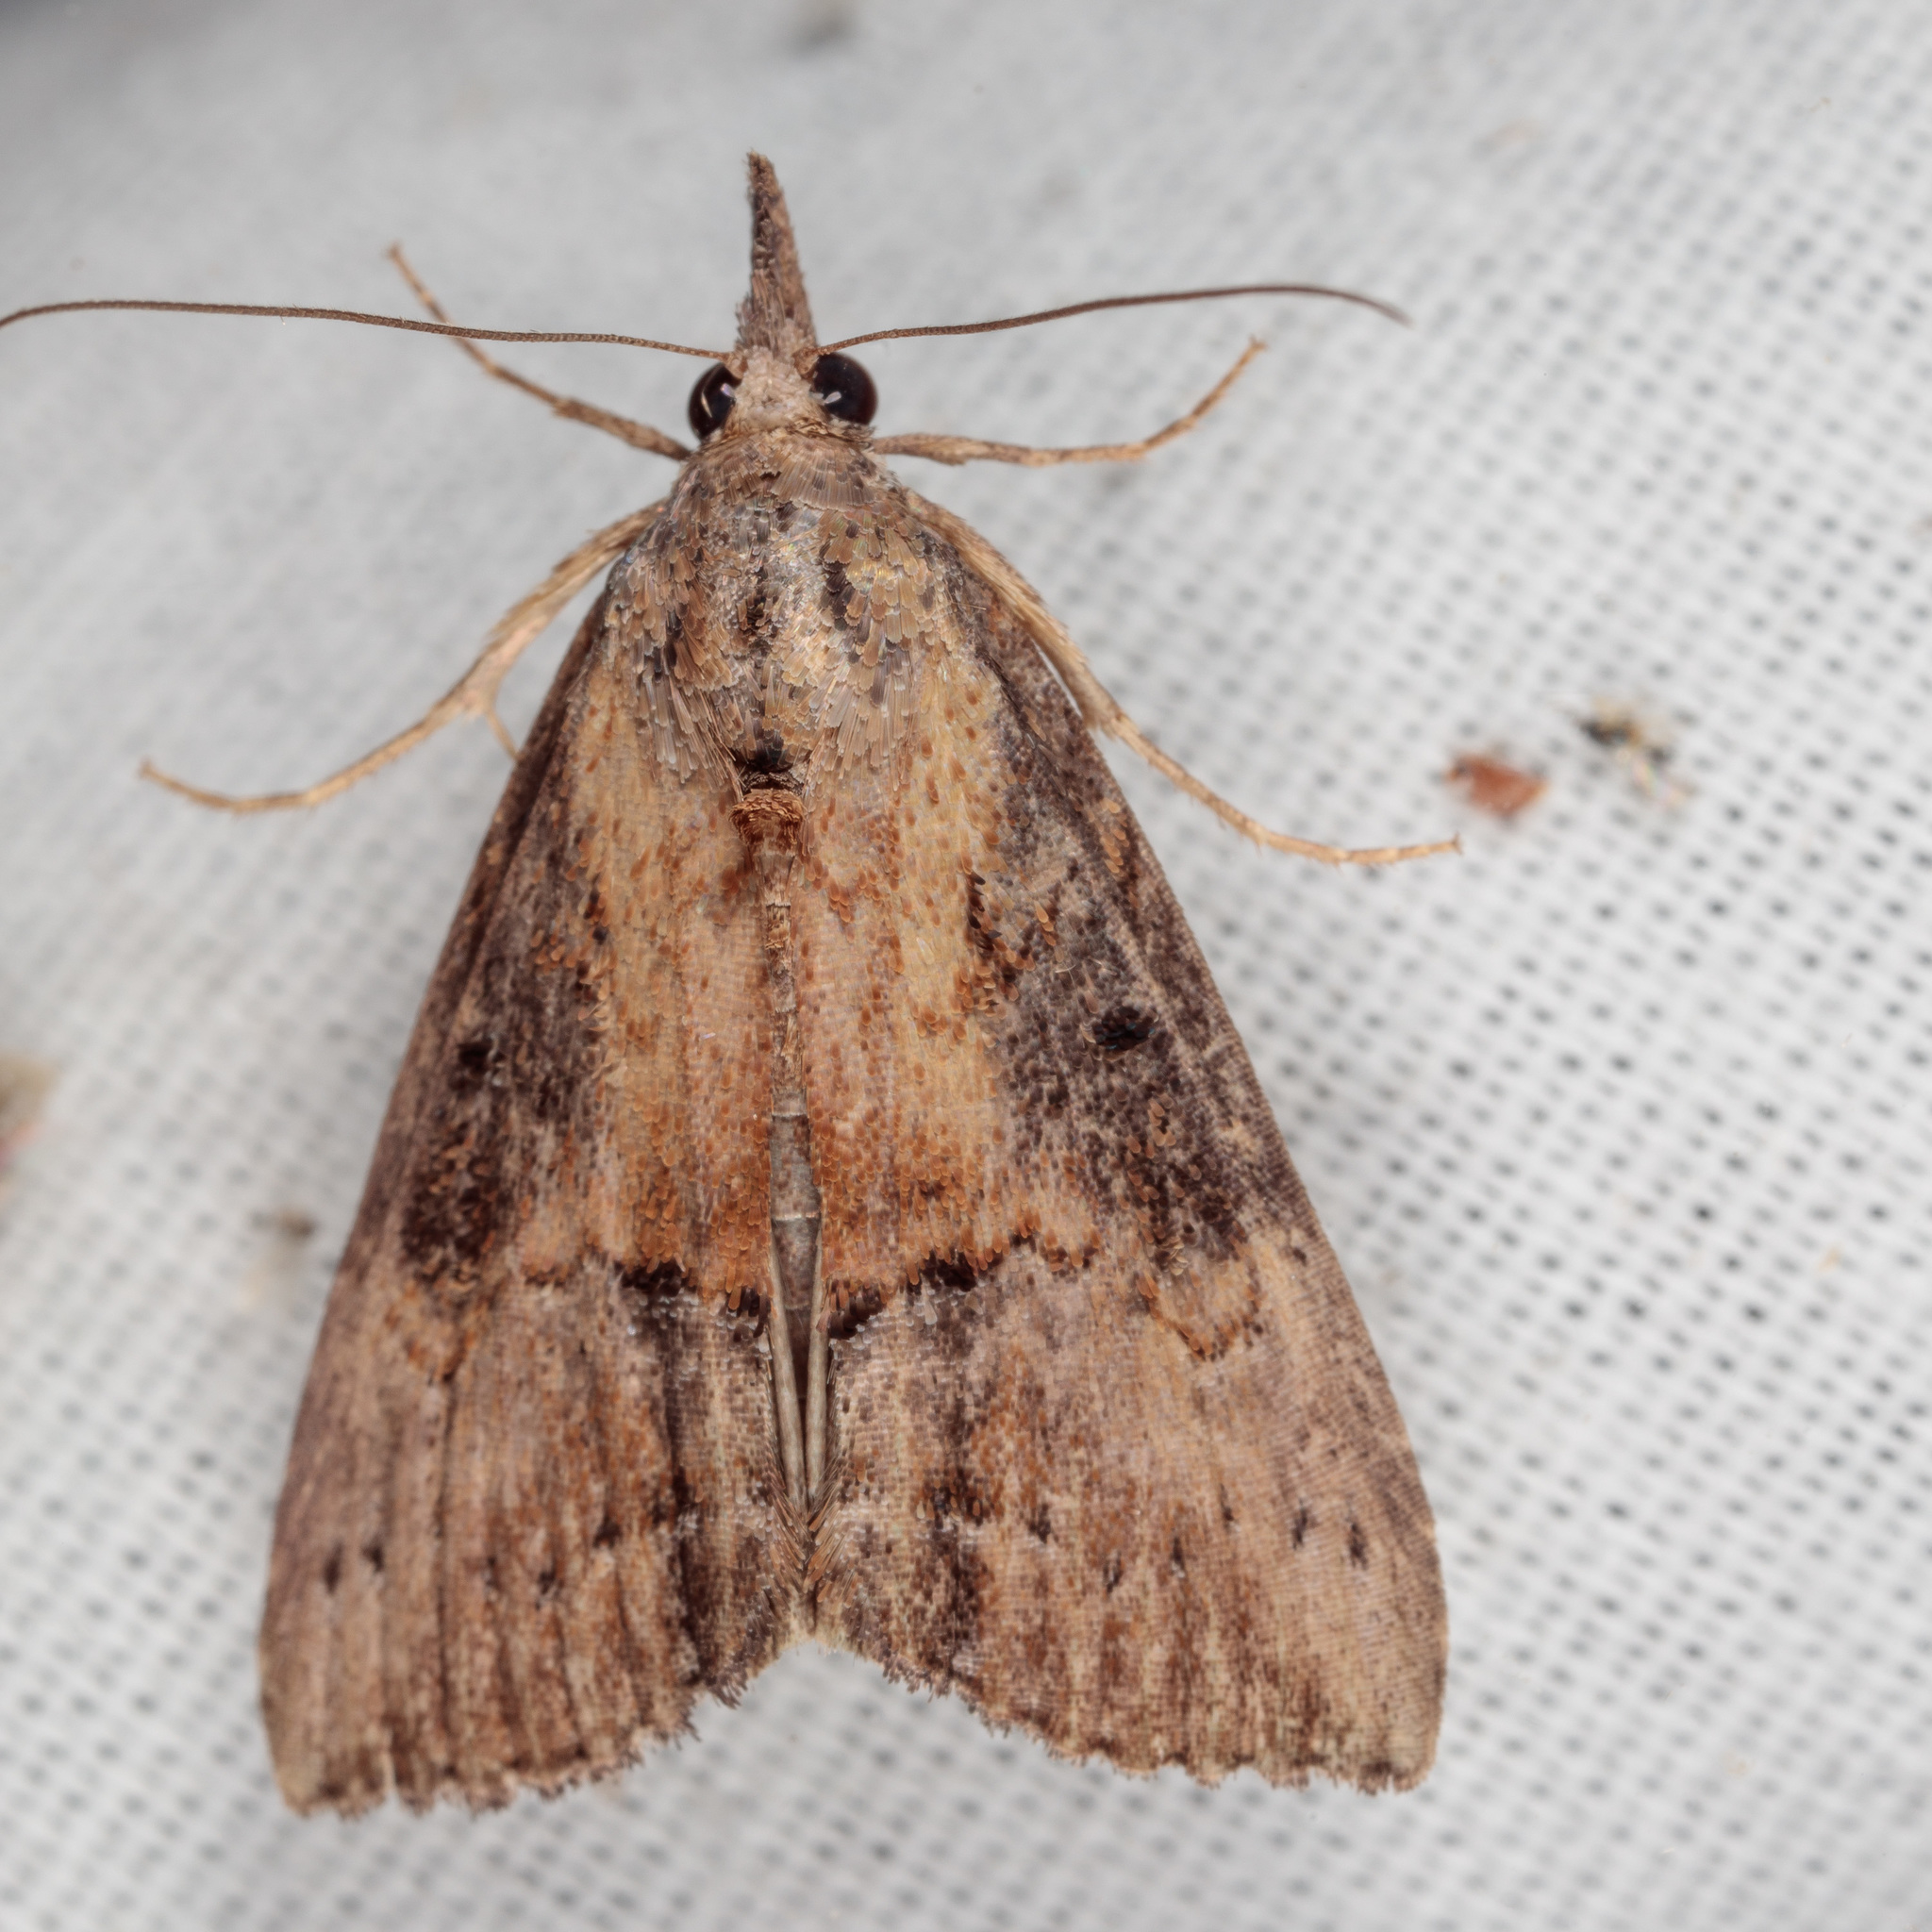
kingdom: Animalia
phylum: Arthropoda
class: Insecta
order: Lepidoptera
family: Erebidae
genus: Hypena
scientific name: Hypena scabra
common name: Green cloverworm
